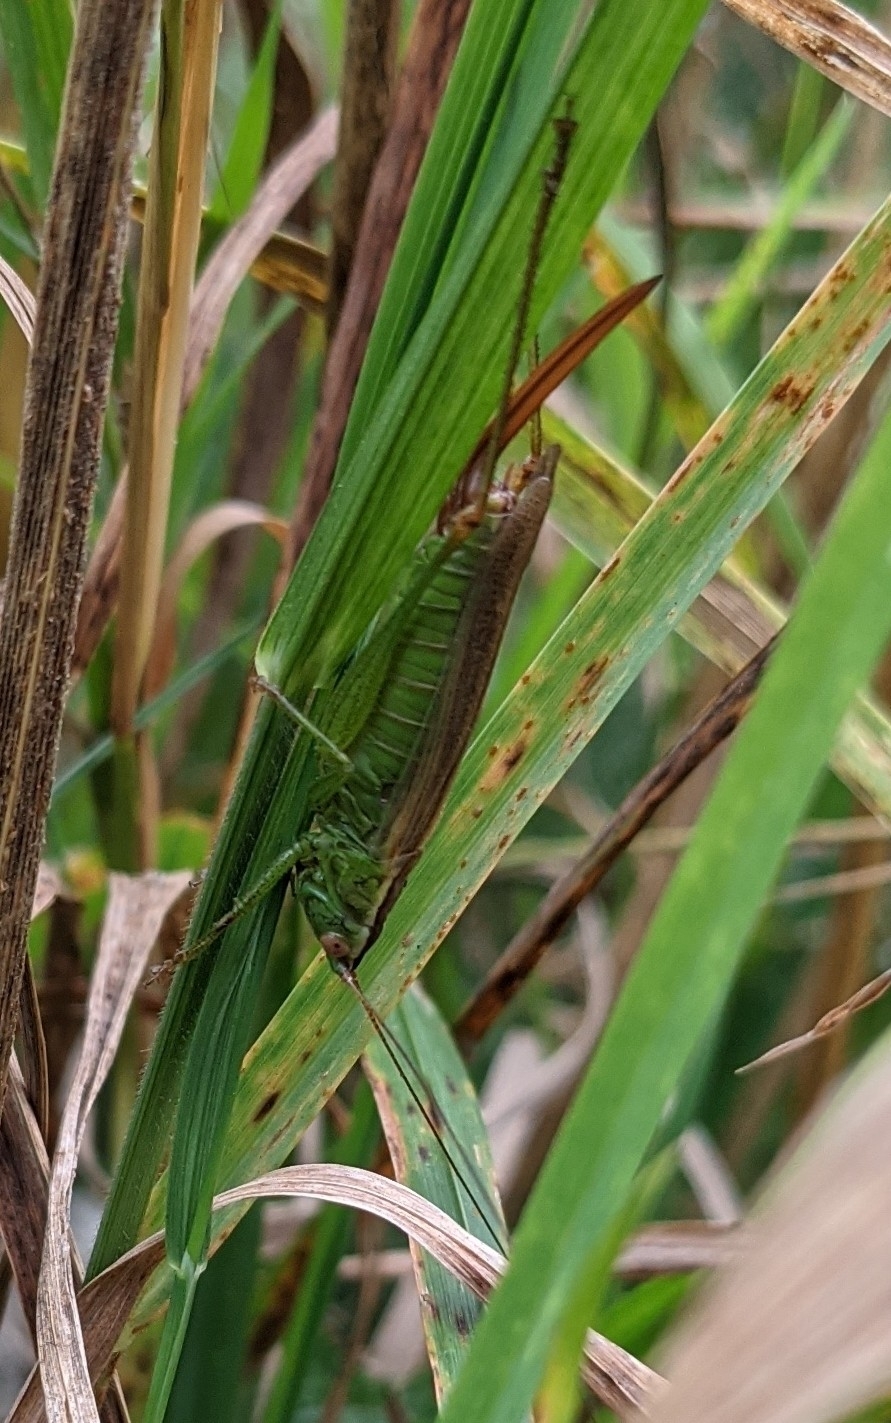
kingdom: Animalia
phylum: Arthropoda
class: Insecta
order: Orthoptera
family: Tettigoniidae
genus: Conocephalus
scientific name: Conocephalus fuscus
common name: Long-winged conehead
